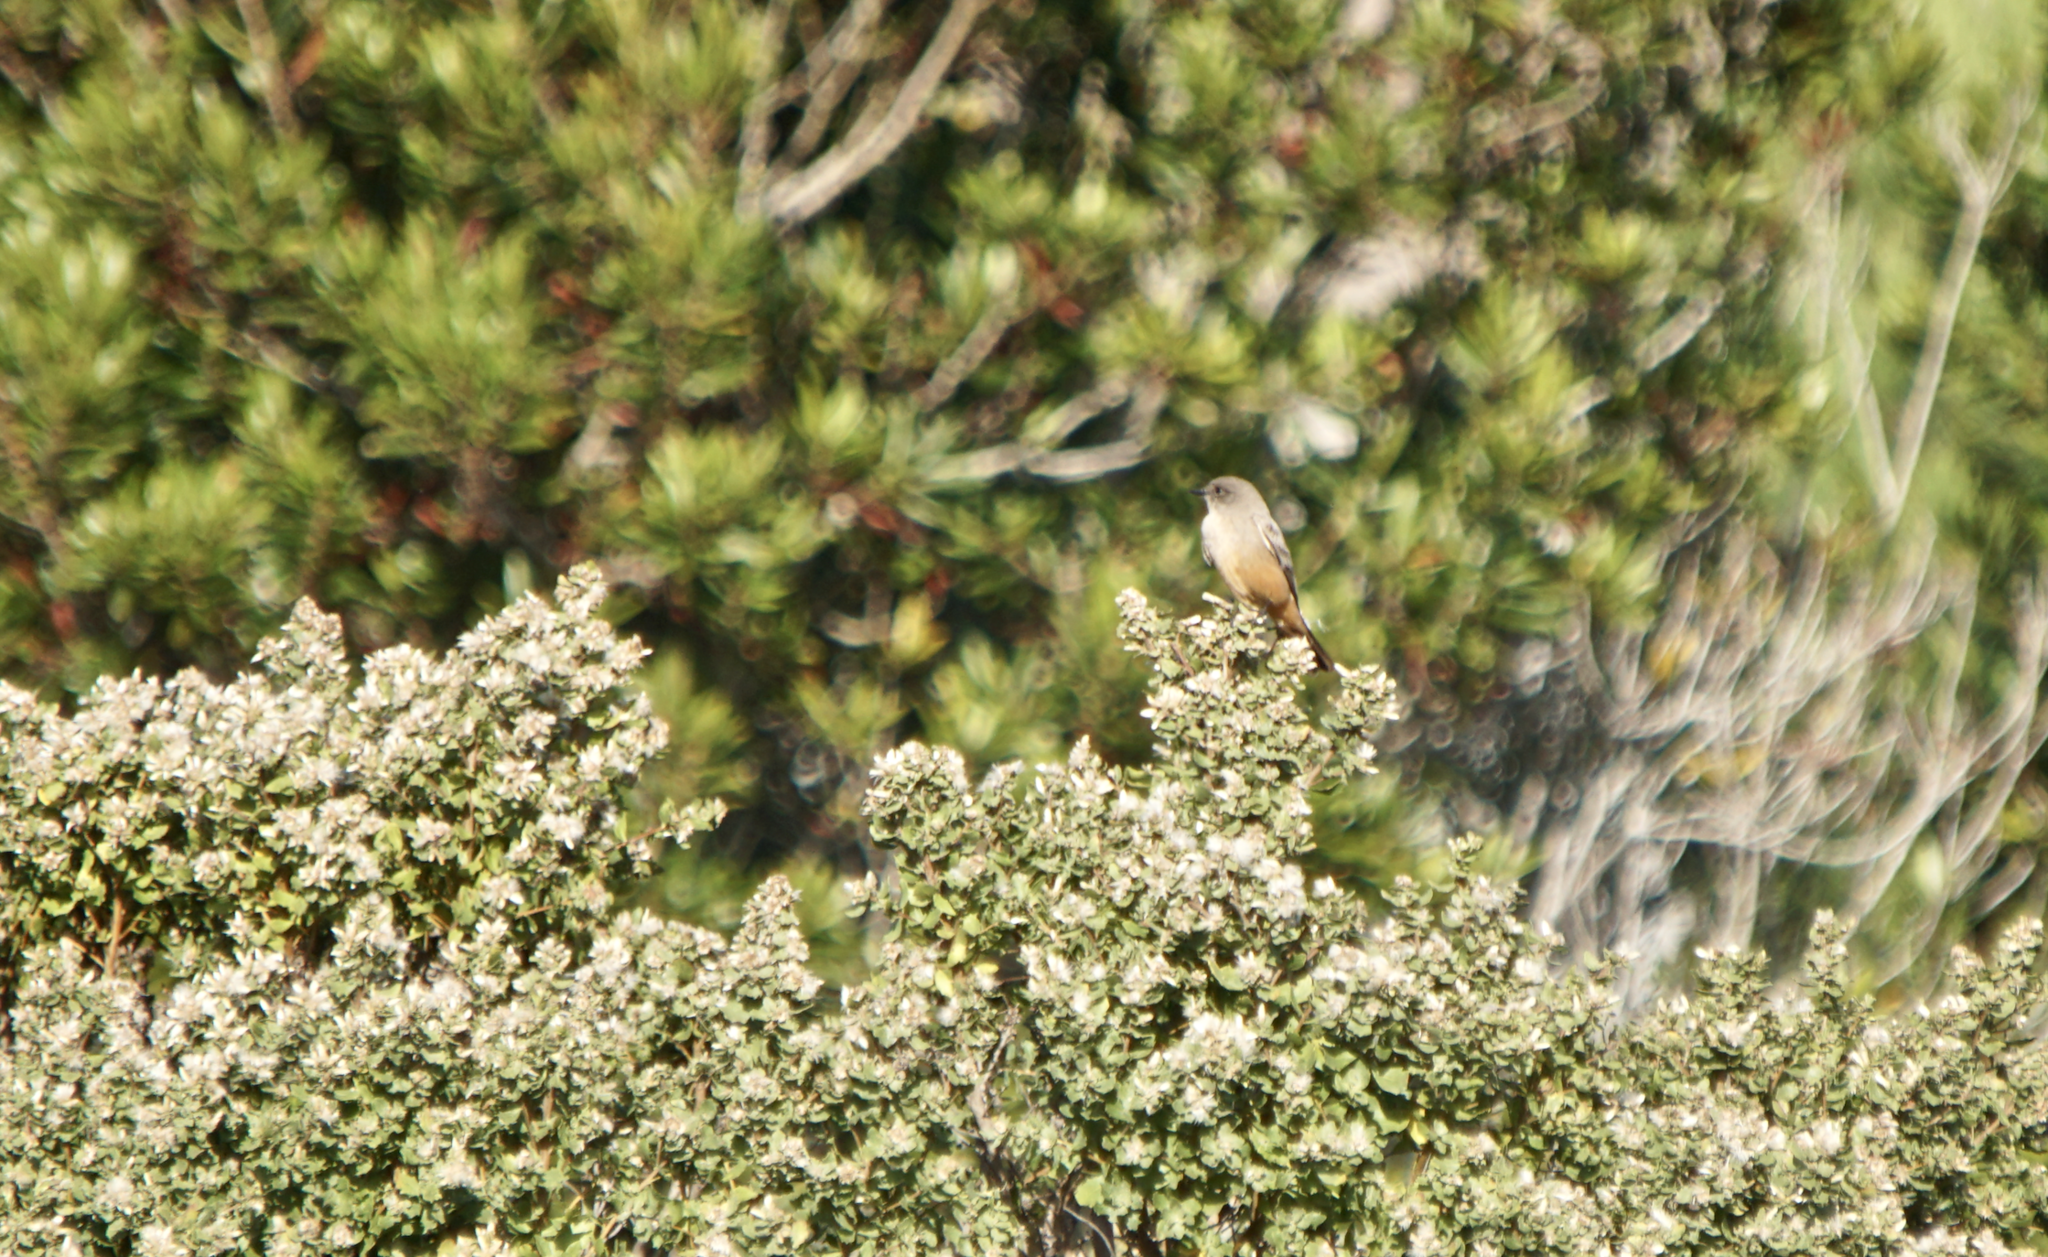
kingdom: Animalia
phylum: Chordata
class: Aves
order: Passeriformes
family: Tyrannidae
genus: Sayornis
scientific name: Sayornis saya
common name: Say's phoebe
